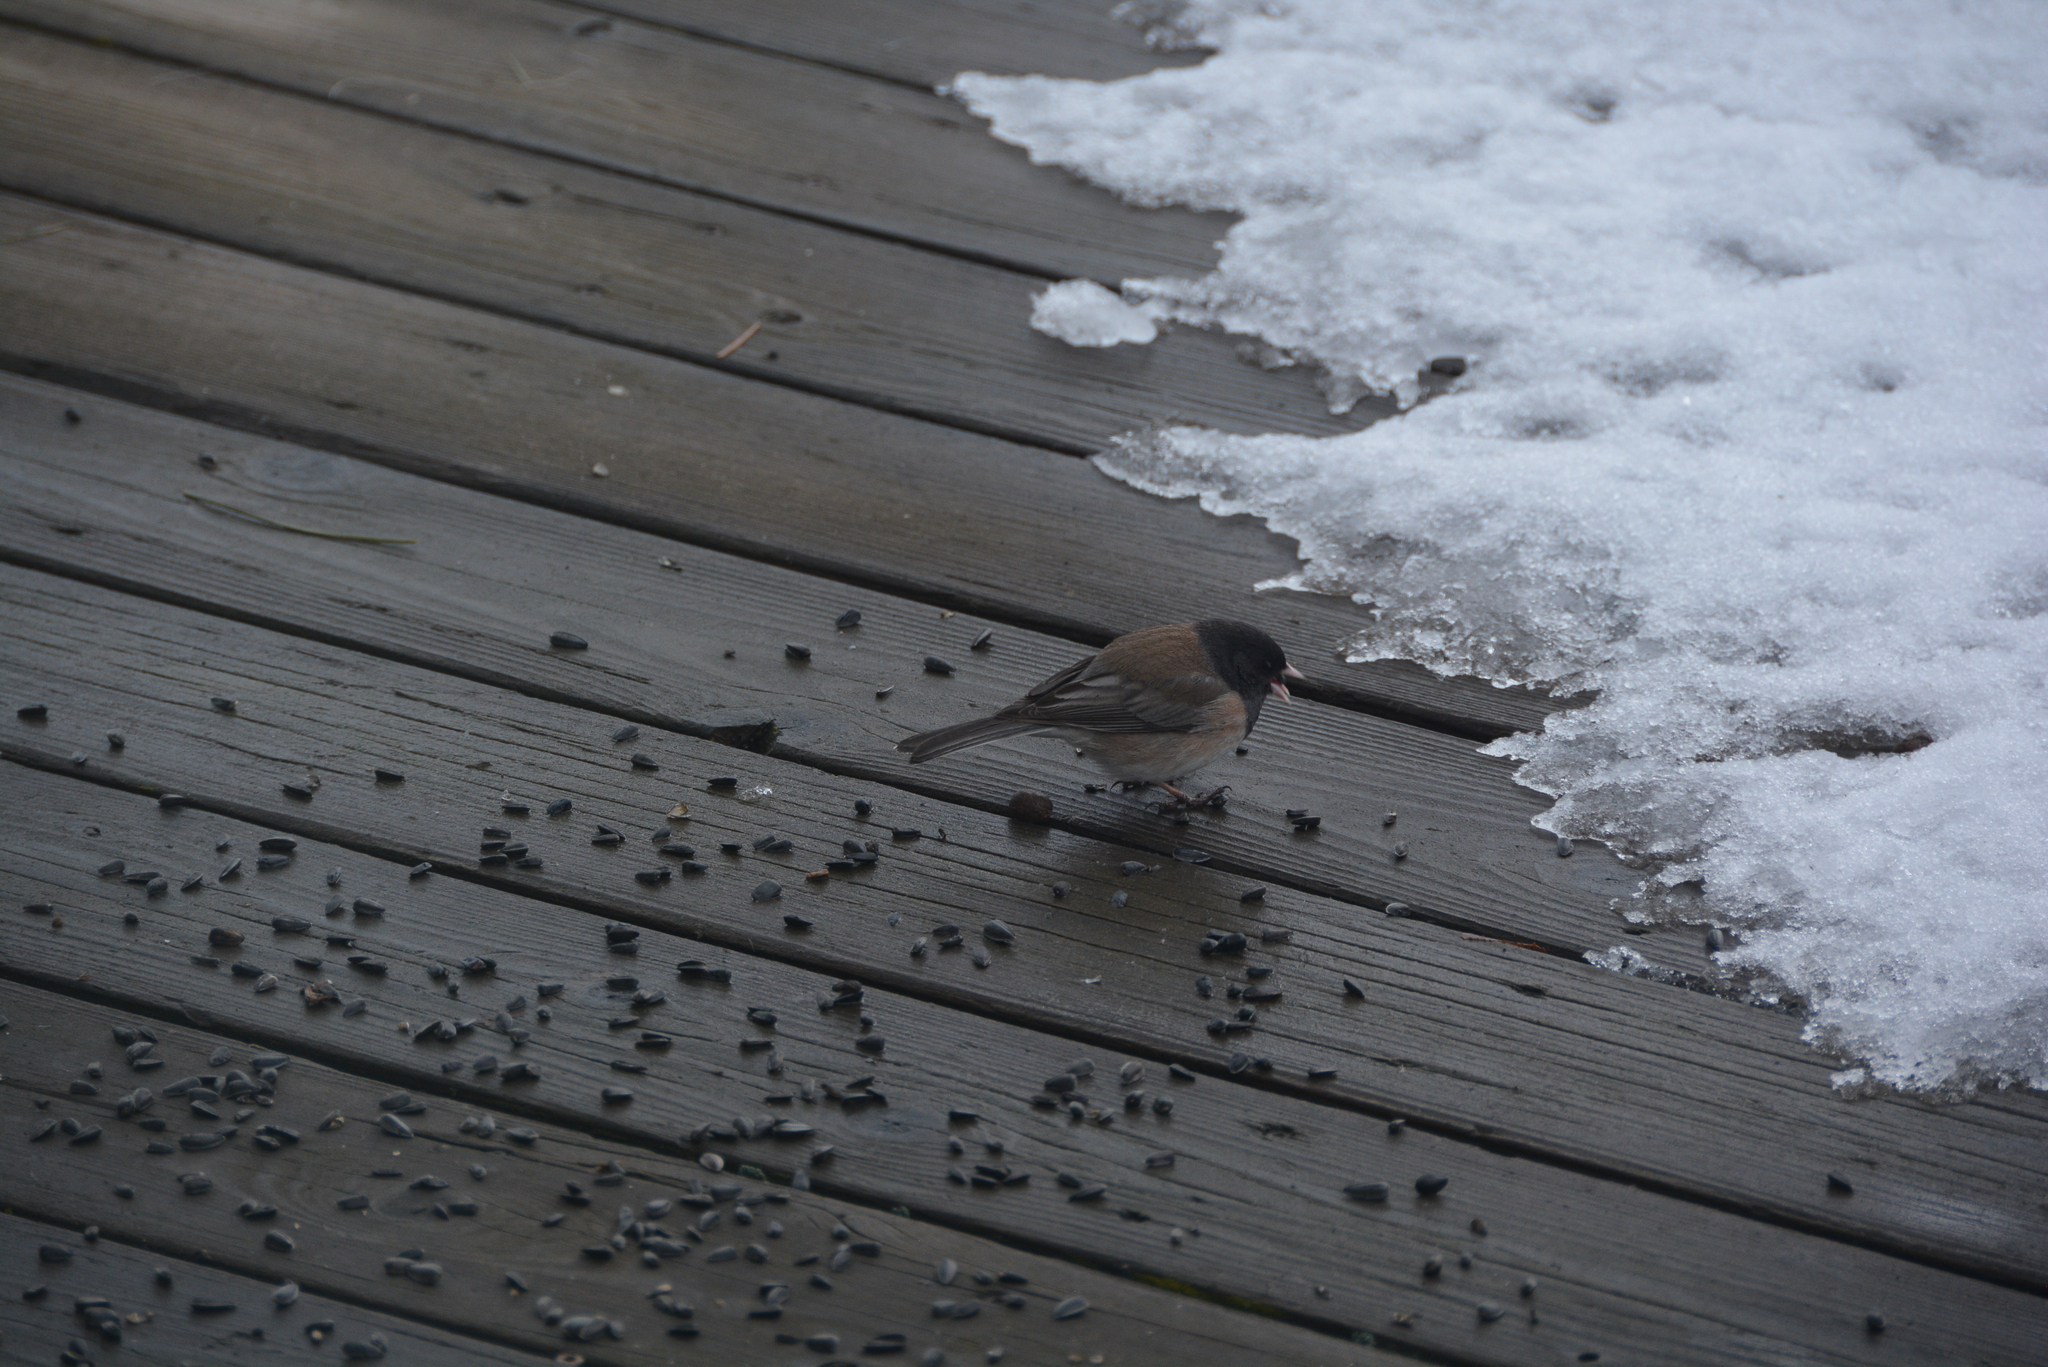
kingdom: Animalia
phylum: Chordata
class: Aves
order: Passeriformes
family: Passerellidae
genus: Junco
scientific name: Junco hyemalis
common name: Dark-eyed junco
